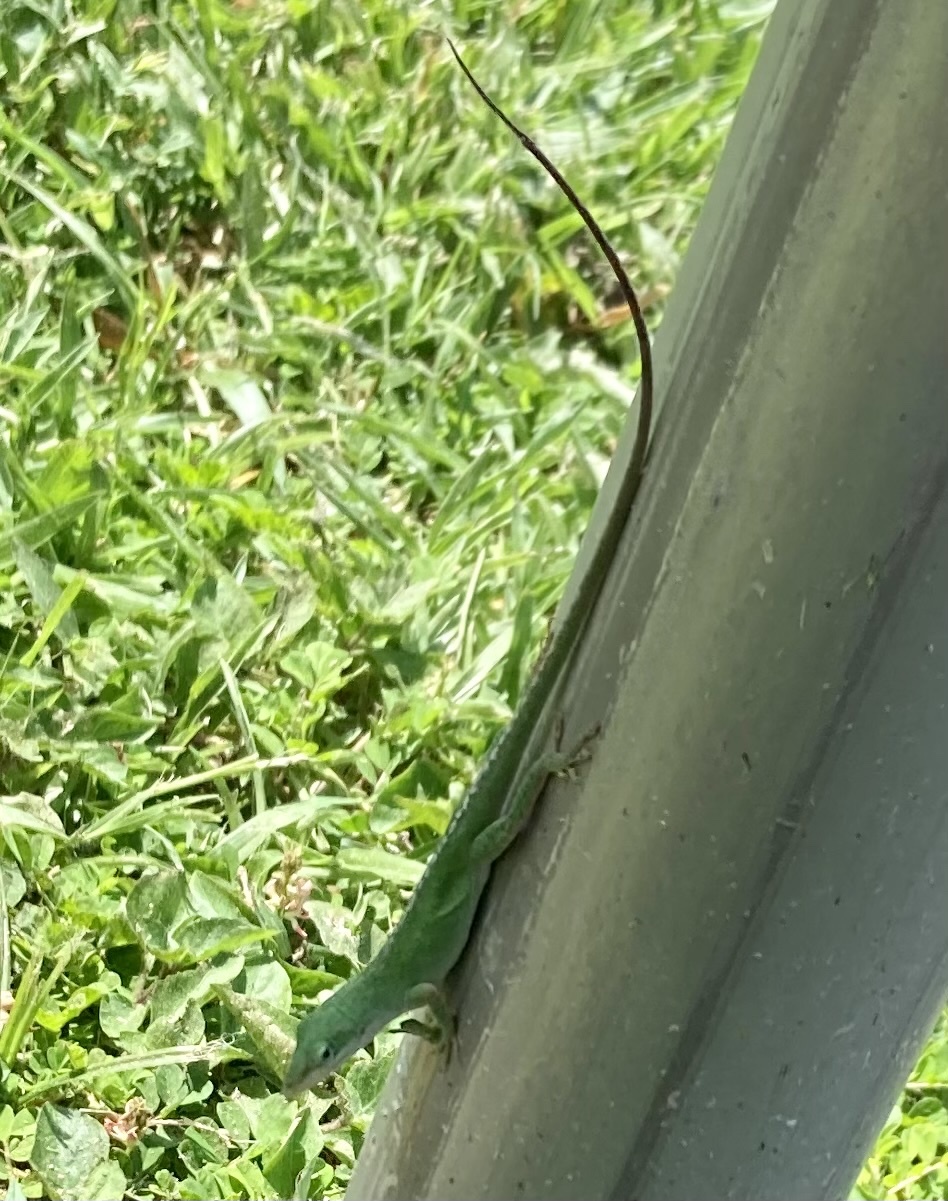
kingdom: Animalia
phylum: Chordata
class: Squamata
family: Dactyloidae
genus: Anolis
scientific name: Anolis carolinensis
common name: Green anole
